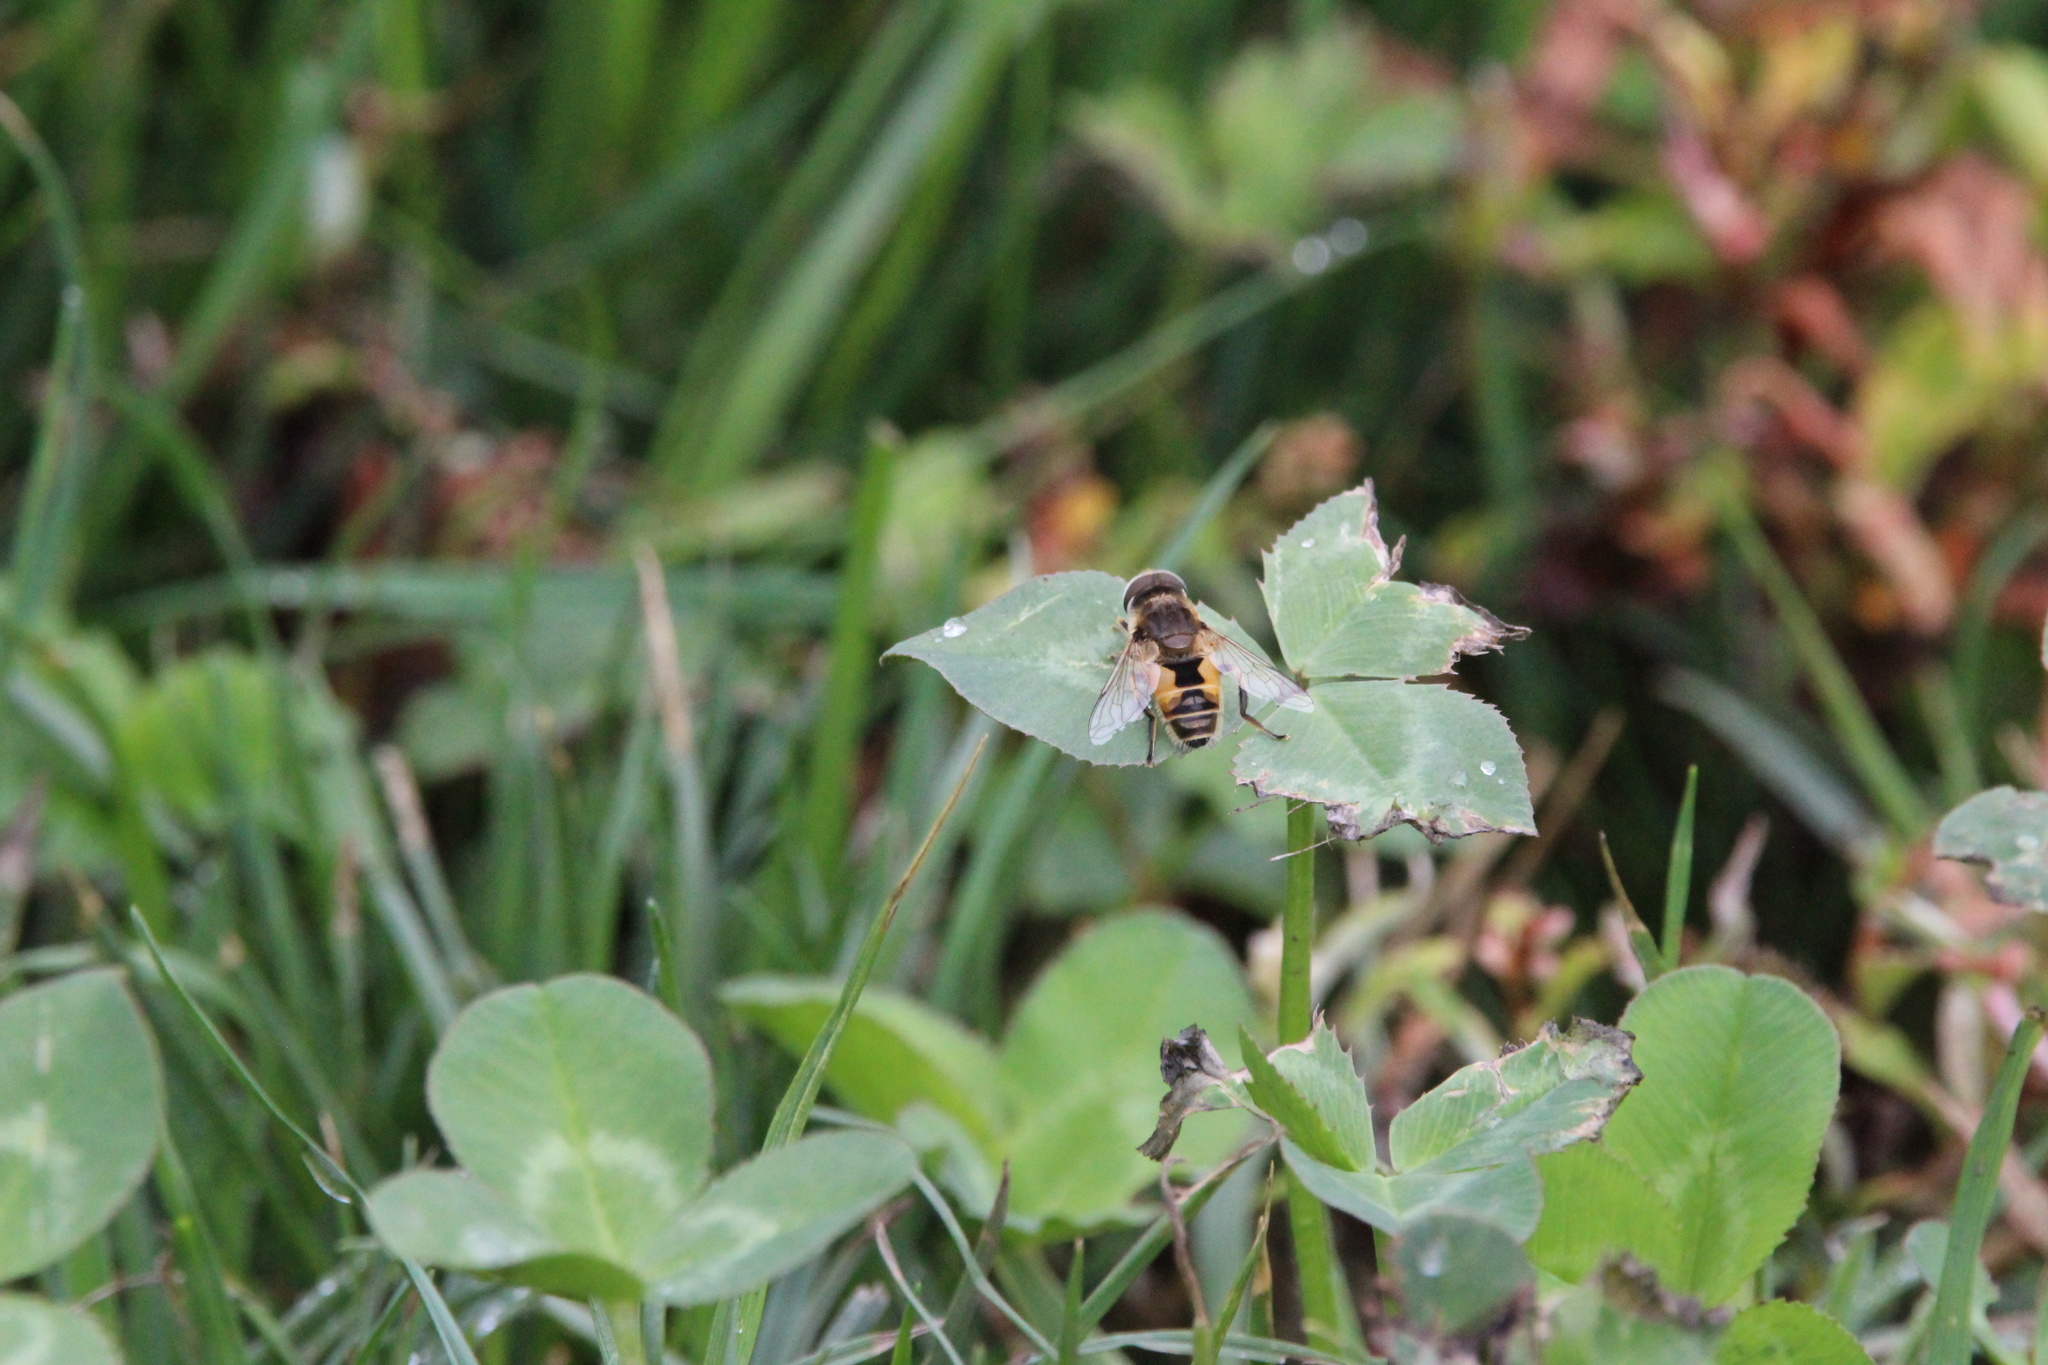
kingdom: Animalia
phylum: Arthropoda
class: Insecta
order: Diptera
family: Syrphidae
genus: Eristalis
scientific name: Eristalis arbustorum
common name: Hover fly
